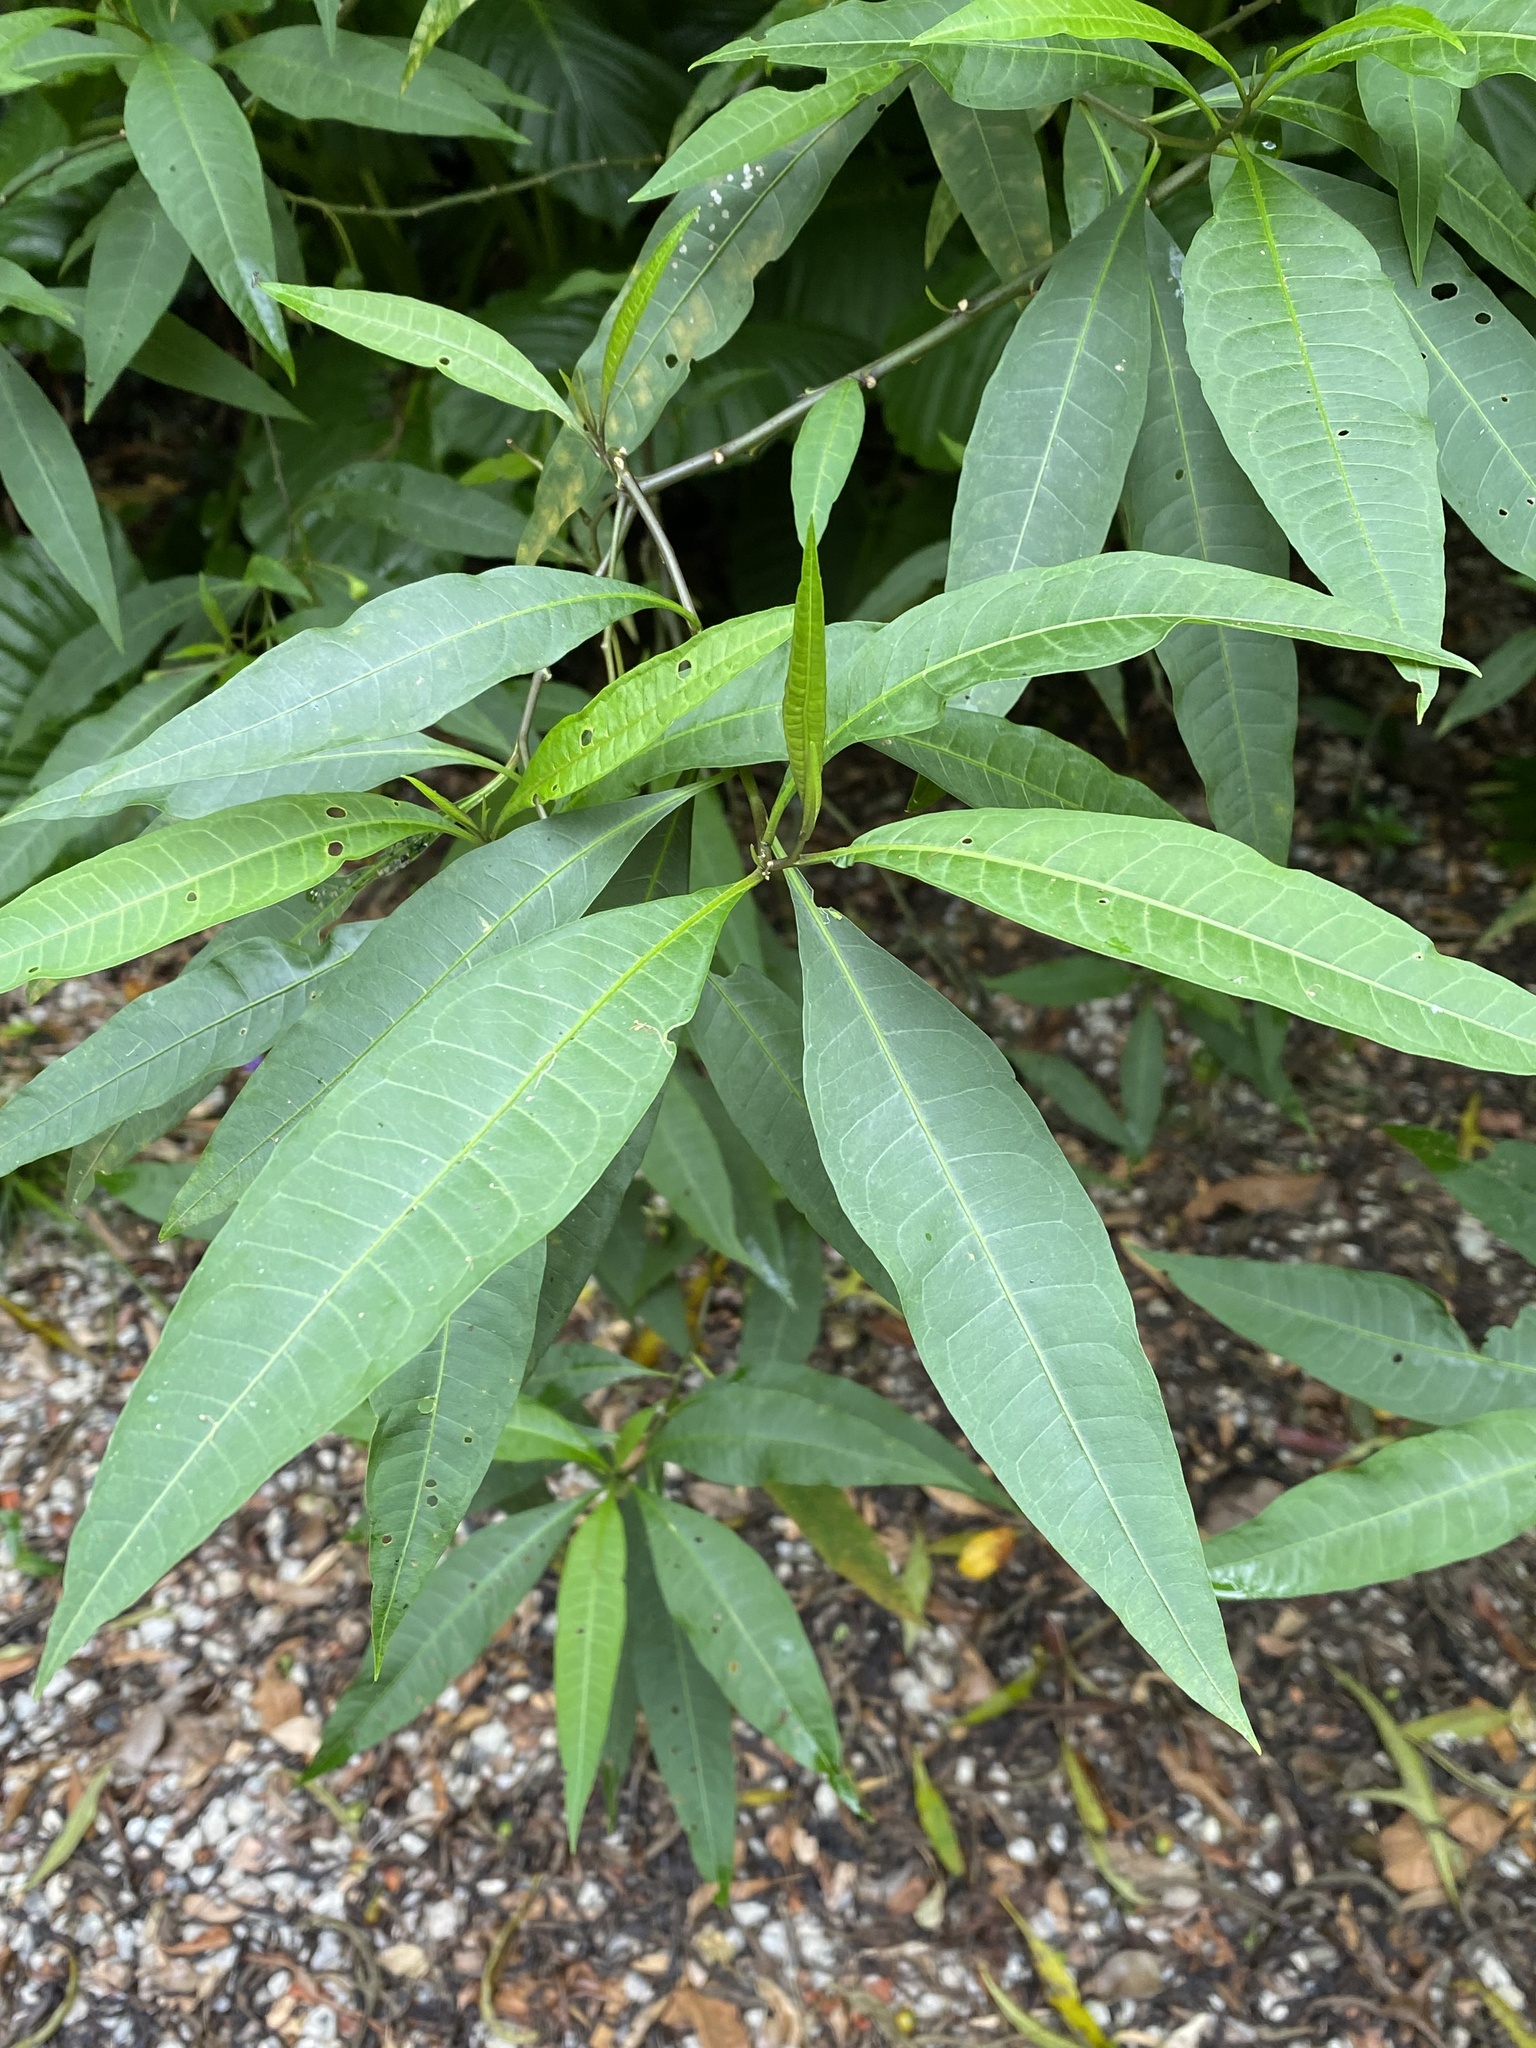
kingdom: Plantae
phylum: Tracheophyta
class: Magnoliopsida
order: Solanales
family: Solanaceae
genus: Solanum
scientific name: Solanum aviculare
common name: New zealand nightshade
